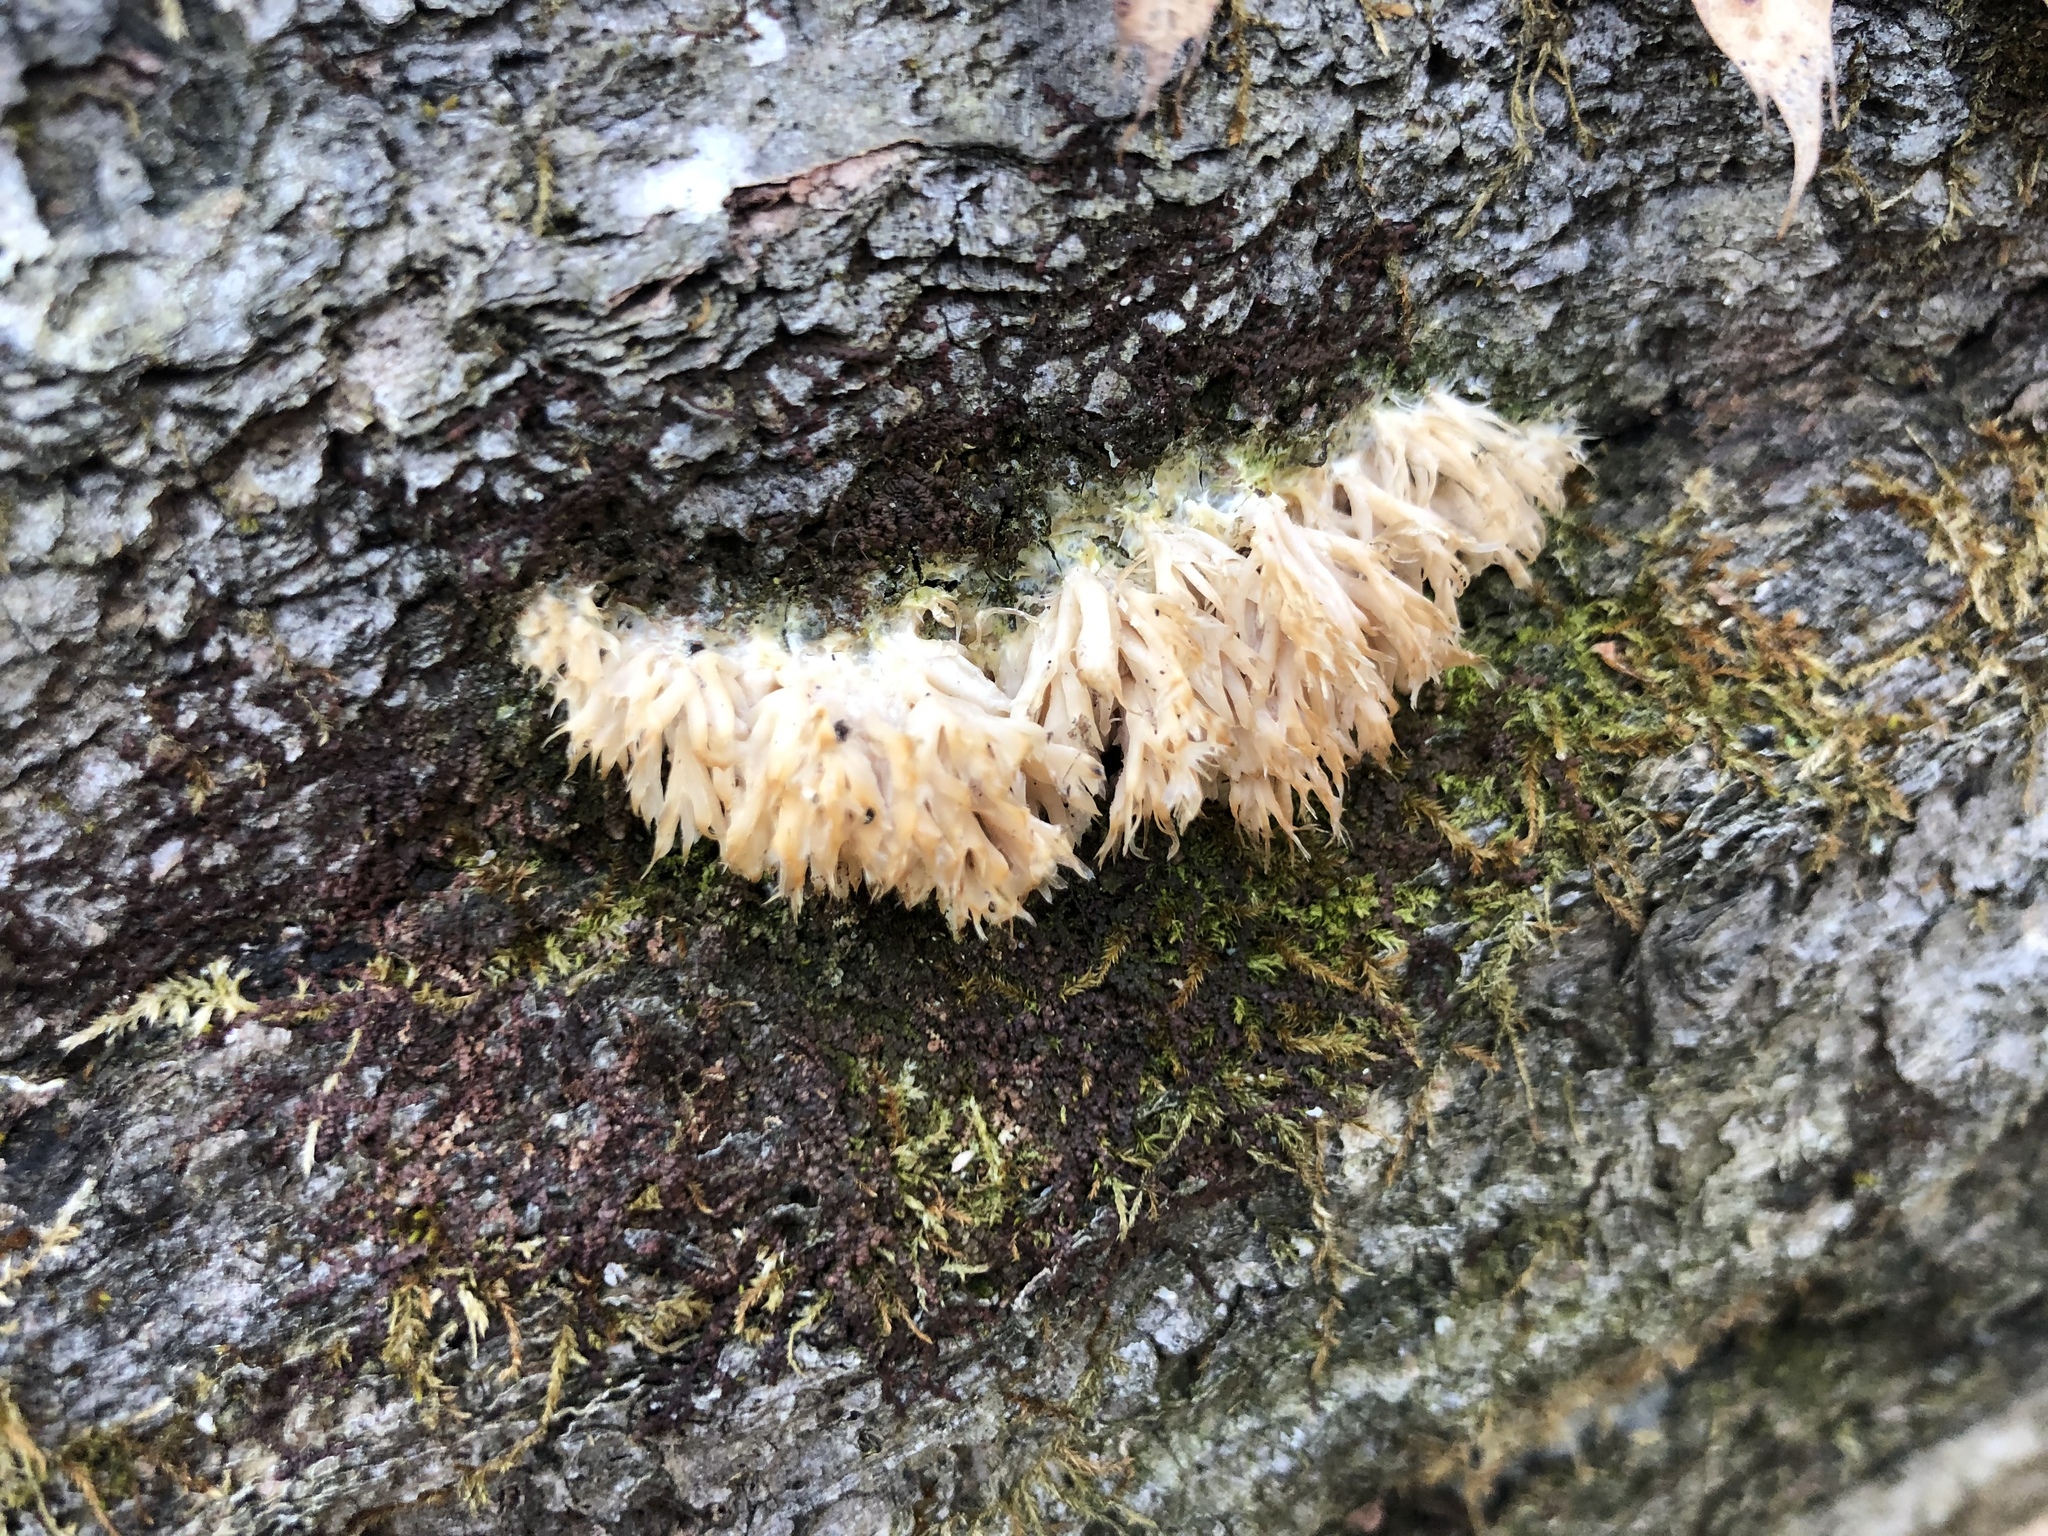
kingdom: Fungi
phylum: Basidiomycota
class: Agaricomycetes
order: Agaricales
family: Radulomycetaceae
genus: Radulomyces
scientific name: Radulomyces copelandii
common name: Asian beauty
